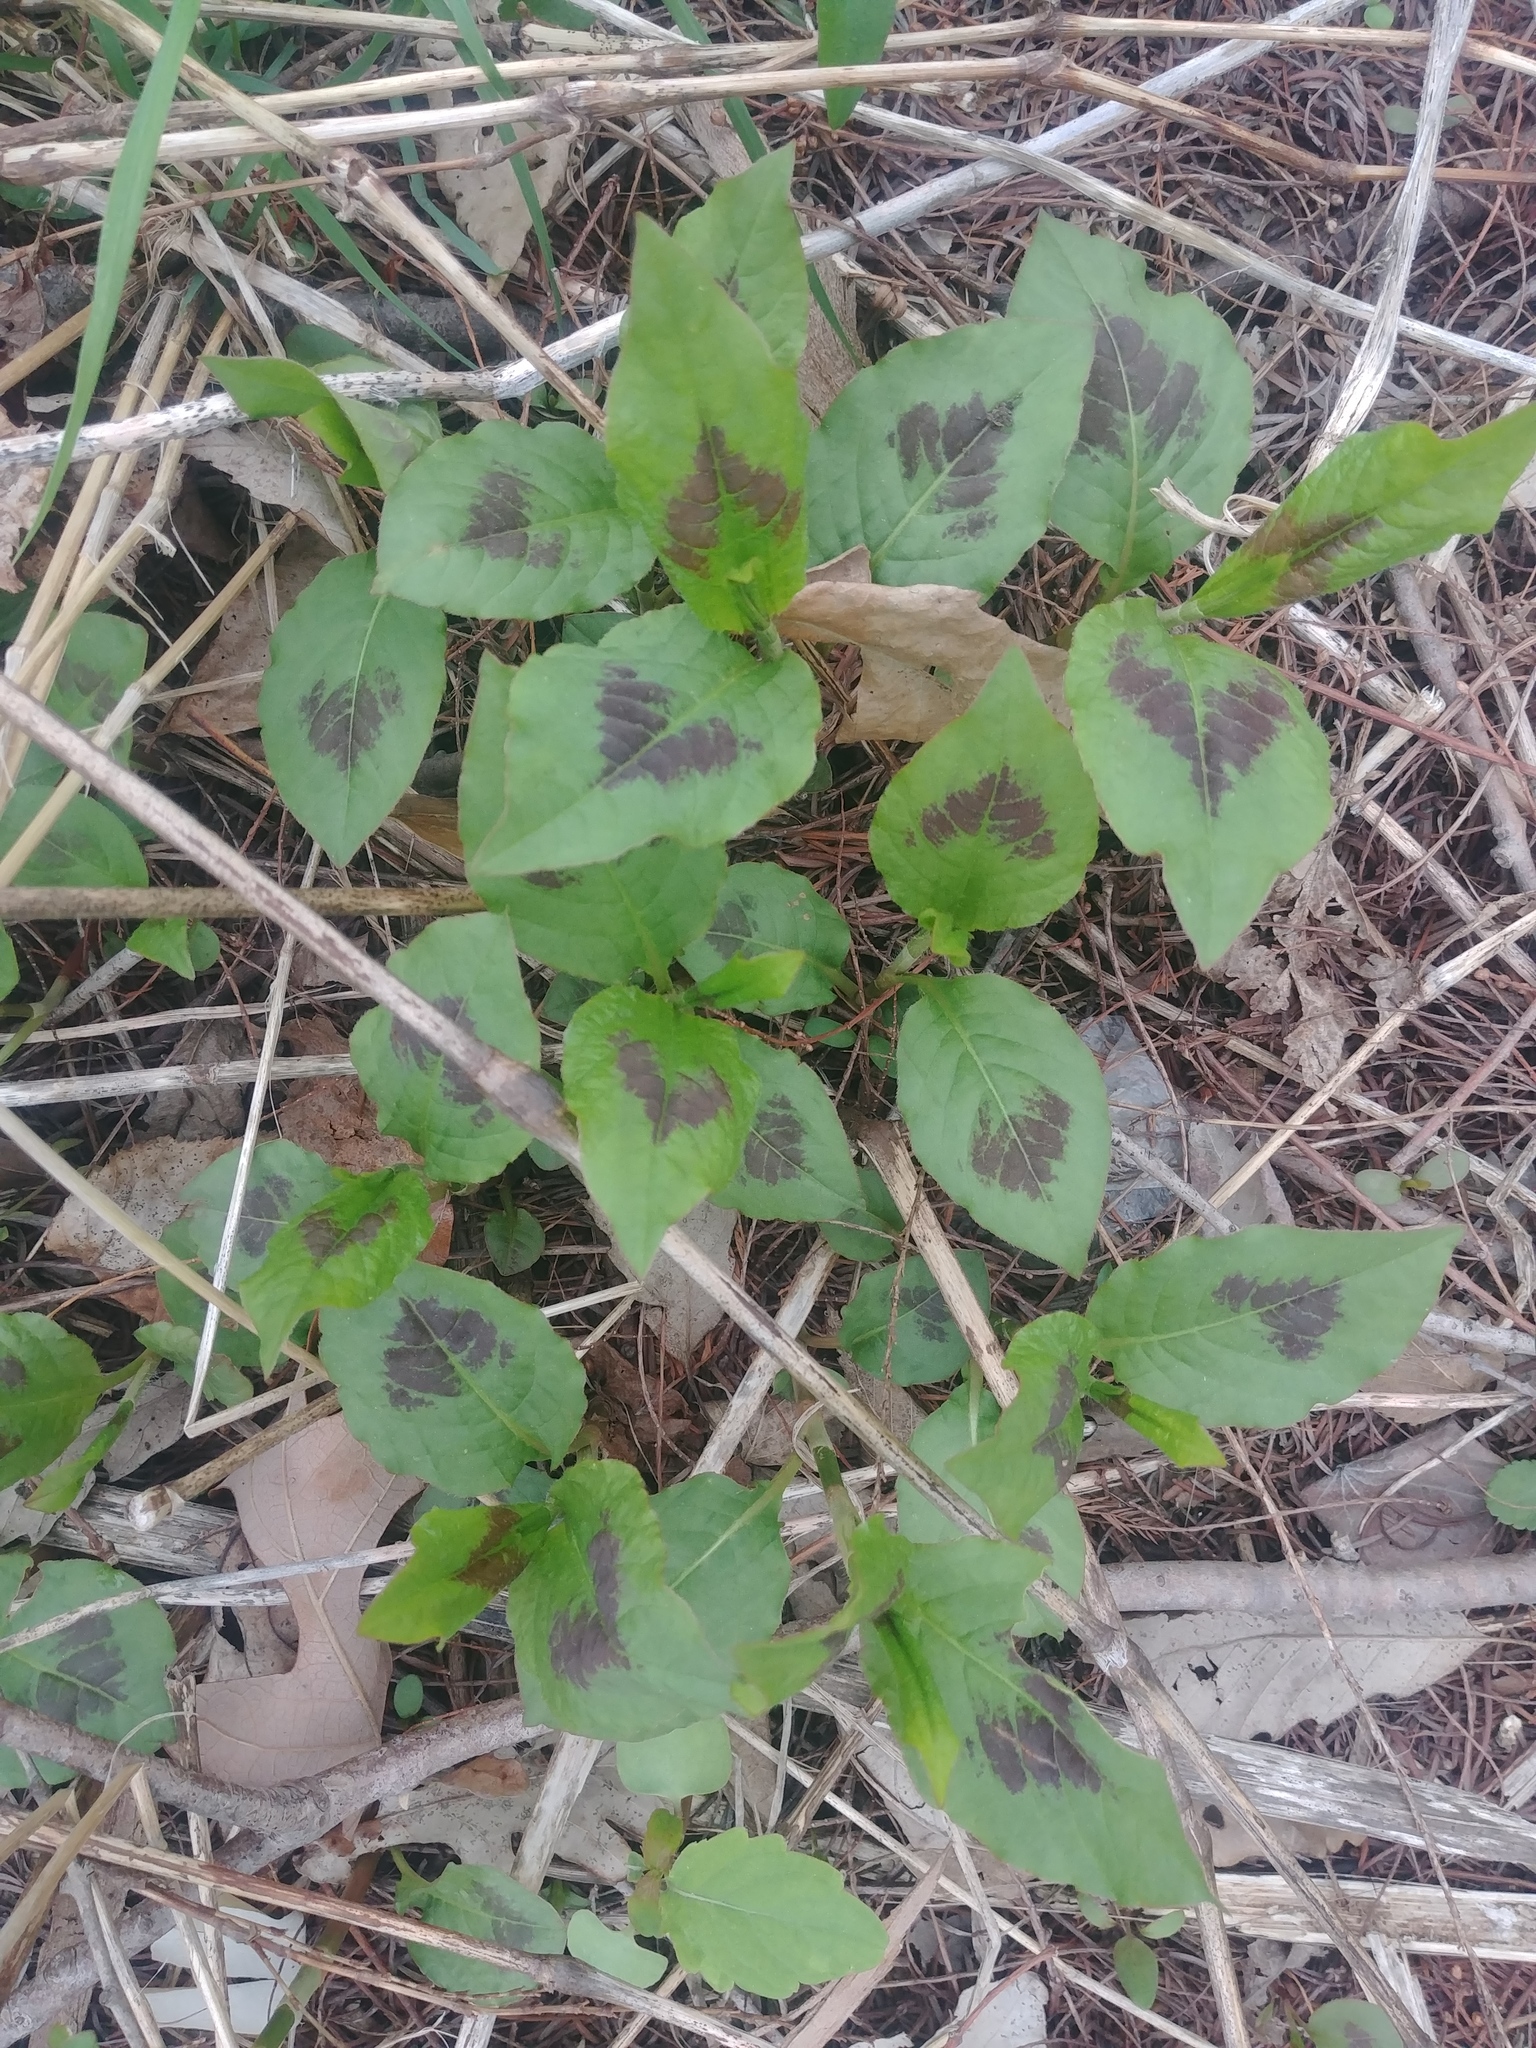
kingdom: Plantae
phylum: Tracheophyta
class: Magnoliopsida
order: Caryophyllales
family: Polygonaceae
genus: Persicaria
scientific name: Persicaria virginiana
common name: Jumpseed
